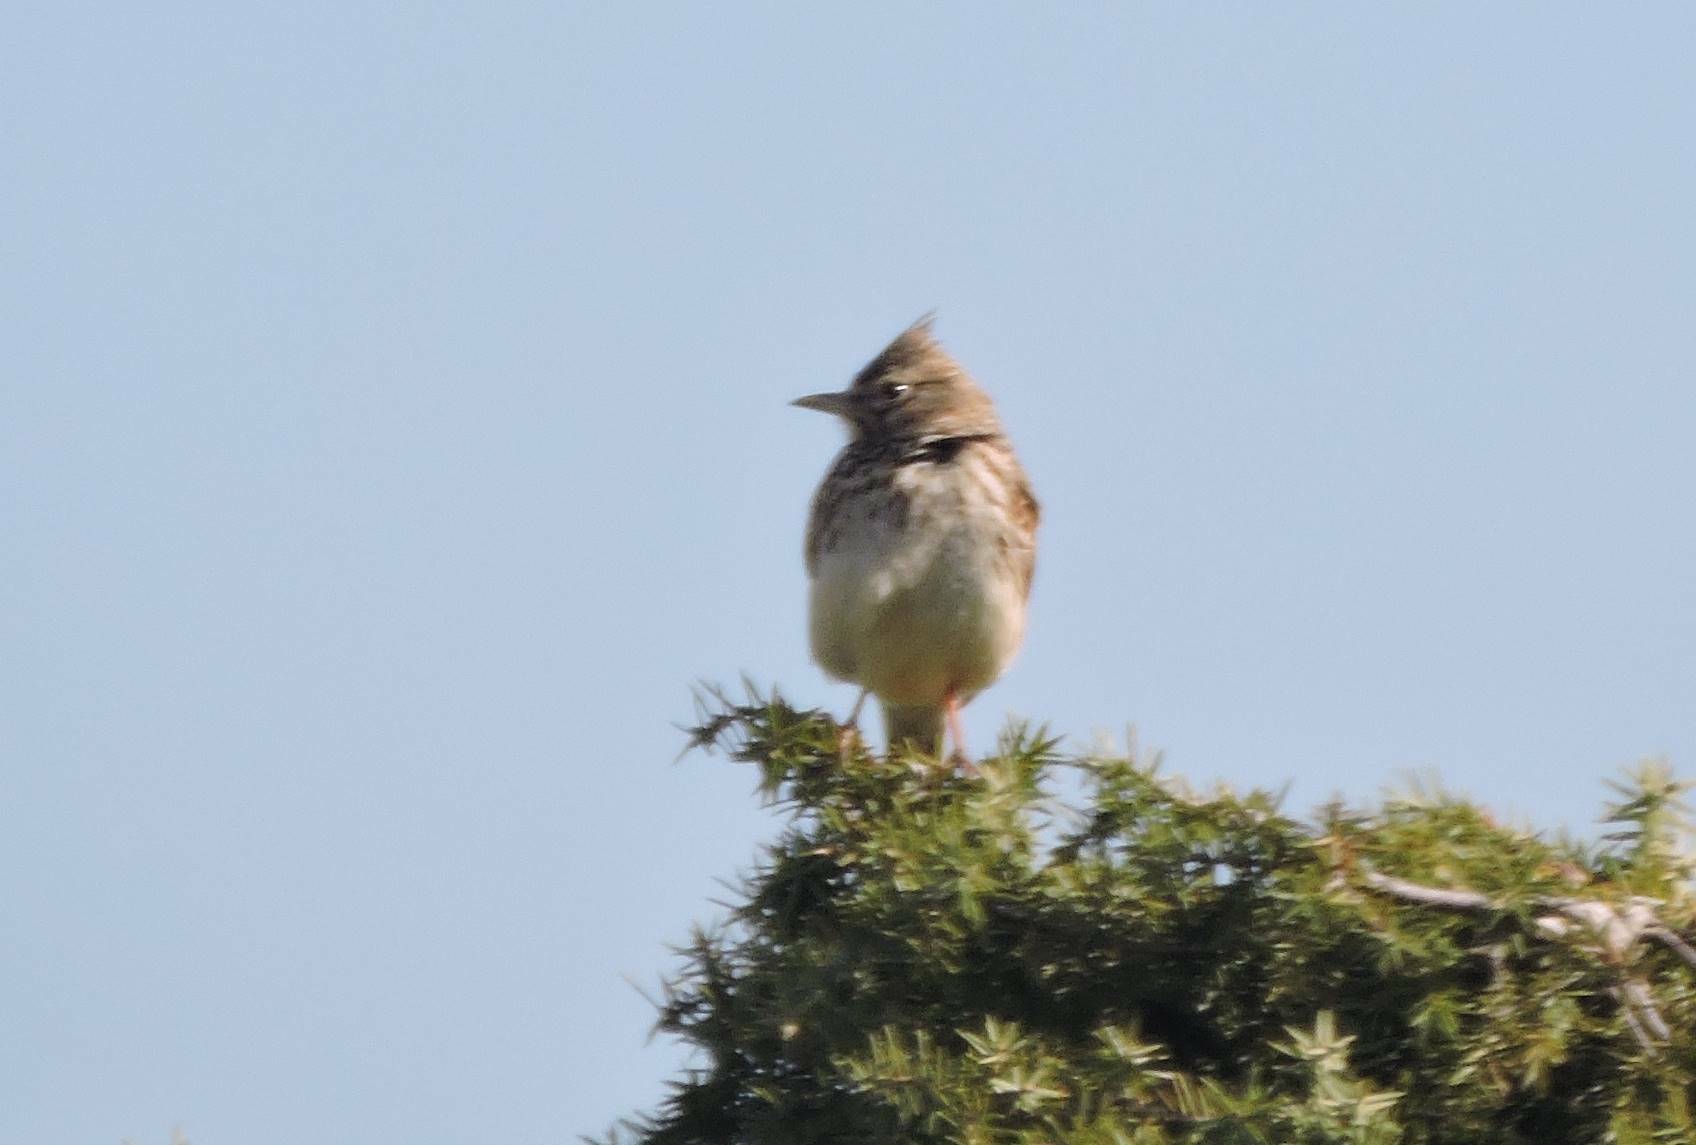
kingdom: Animalia
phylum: Chordata
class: Aves
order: Passeriformes
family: Alaudidae
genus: Galerida
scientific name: Galerida theklae
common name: Thekla lark
